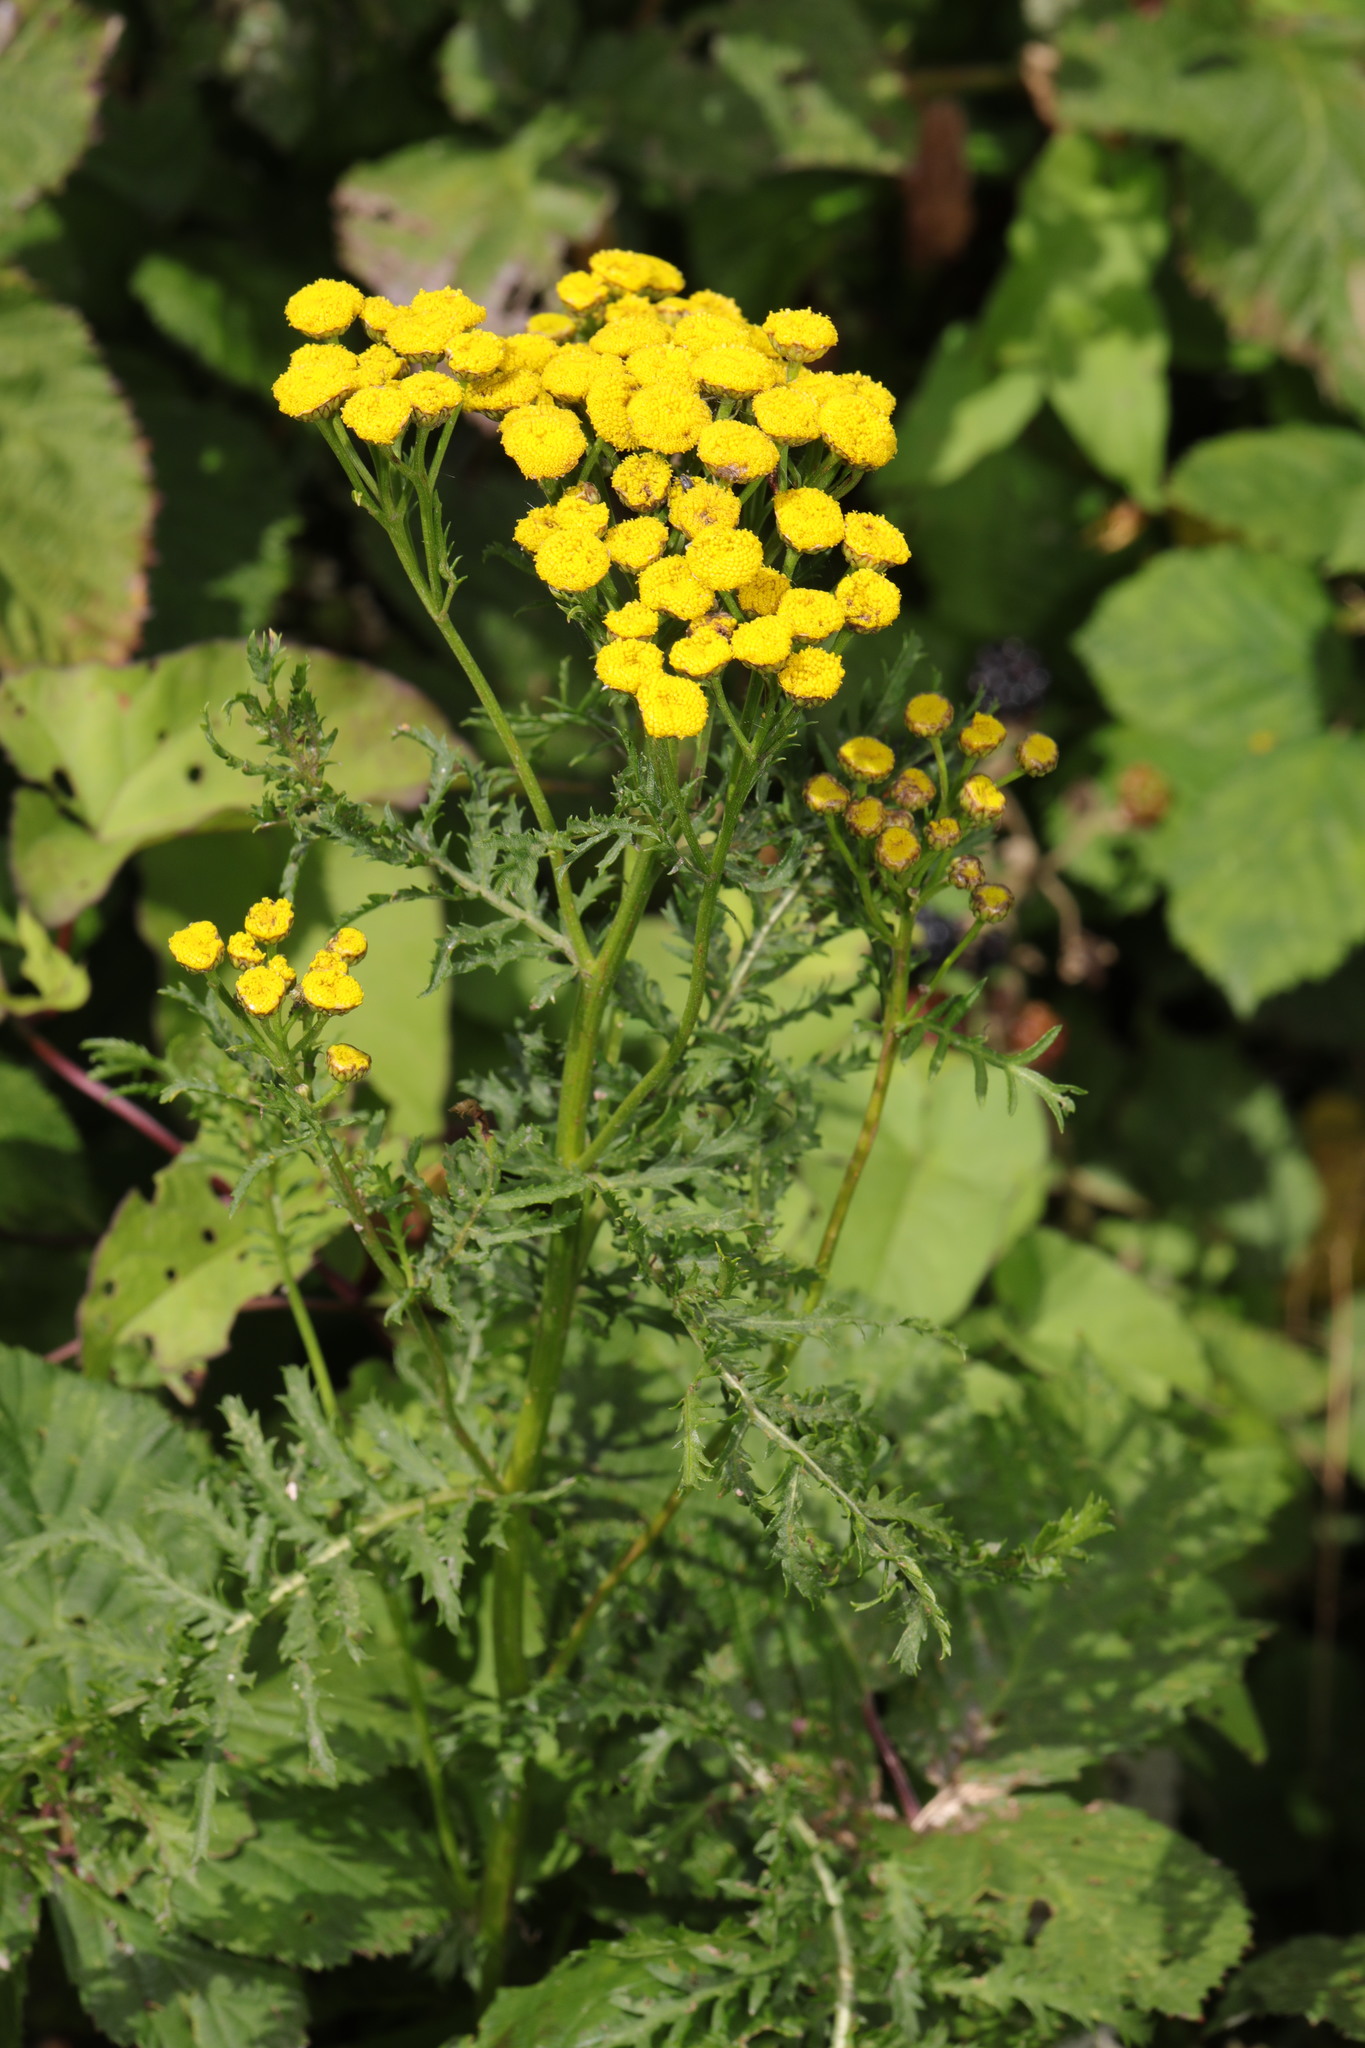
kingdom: Plantae
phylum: Tracheophyta
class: Magnoliopsida
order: Asterales
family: Asteraceae
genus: Tanacetum
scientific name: Tanacetum vulgare
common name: Common tansy
